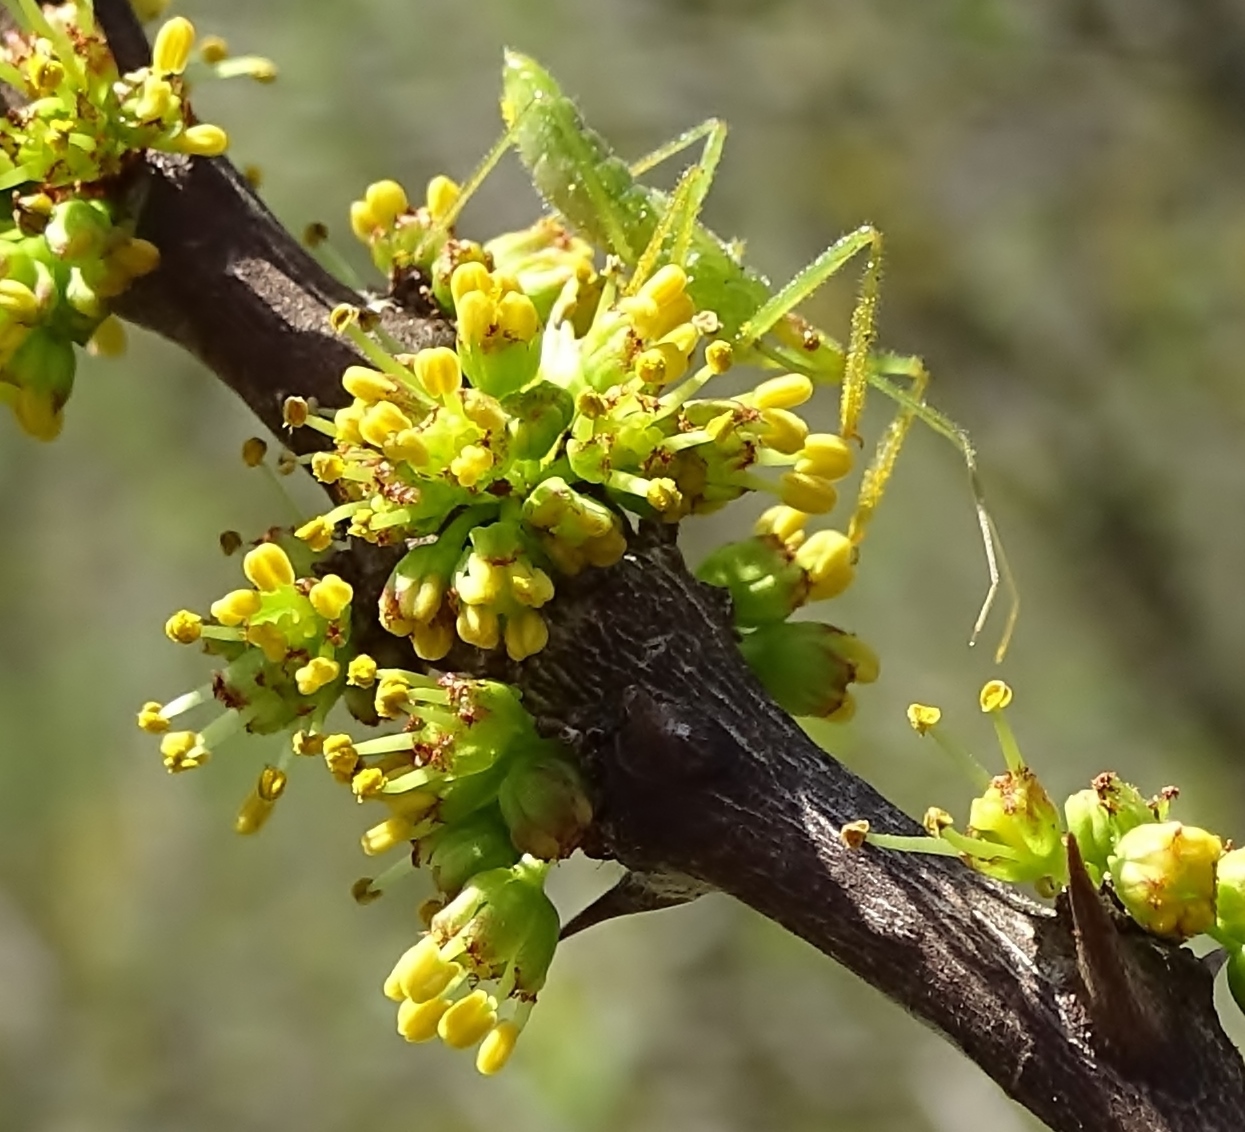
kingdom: Animalia
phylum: Arthropoda
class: Insecta
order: Hemiptera
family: Reduviidae
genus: Zelus
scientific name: Zelus luridus
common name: Pale green assassin bug
